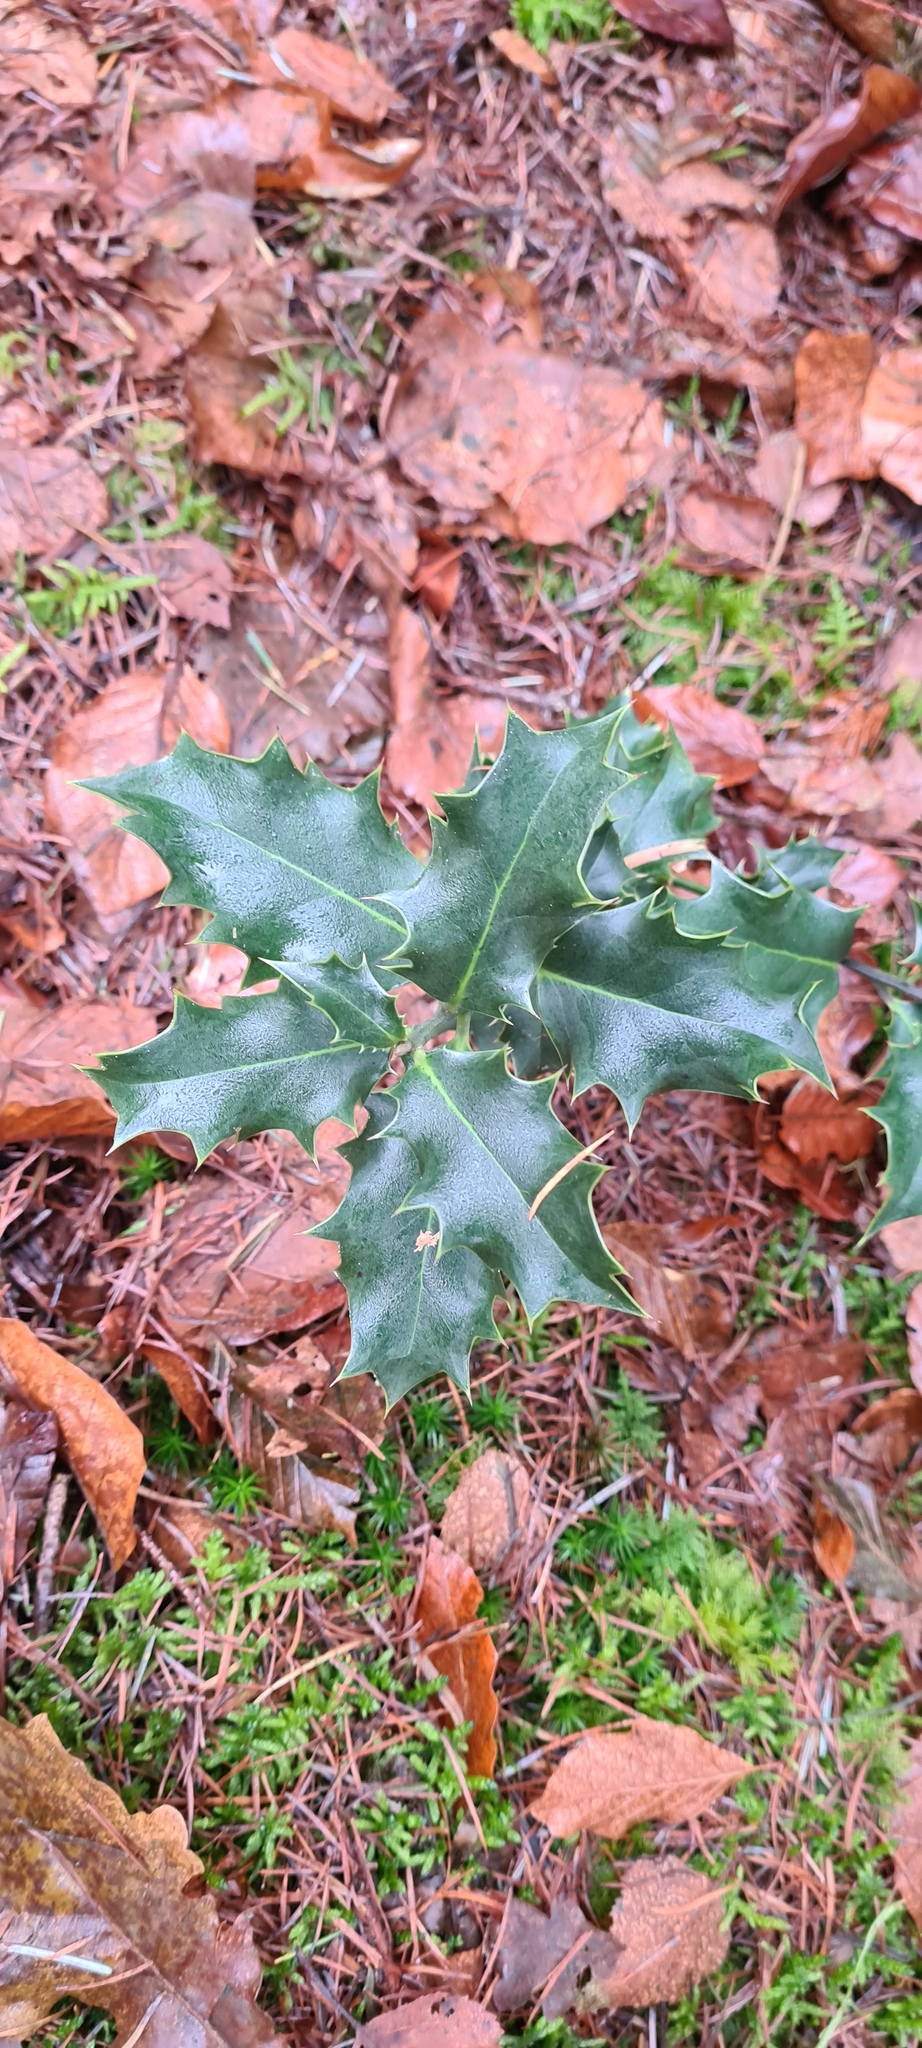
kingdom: Plantae
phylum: Tracheophyta
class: Magnoliopsida
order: Aquifoliales
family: Aquifoliaceae
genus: Ilex
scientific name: Ilex aquifolium
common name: English holly
